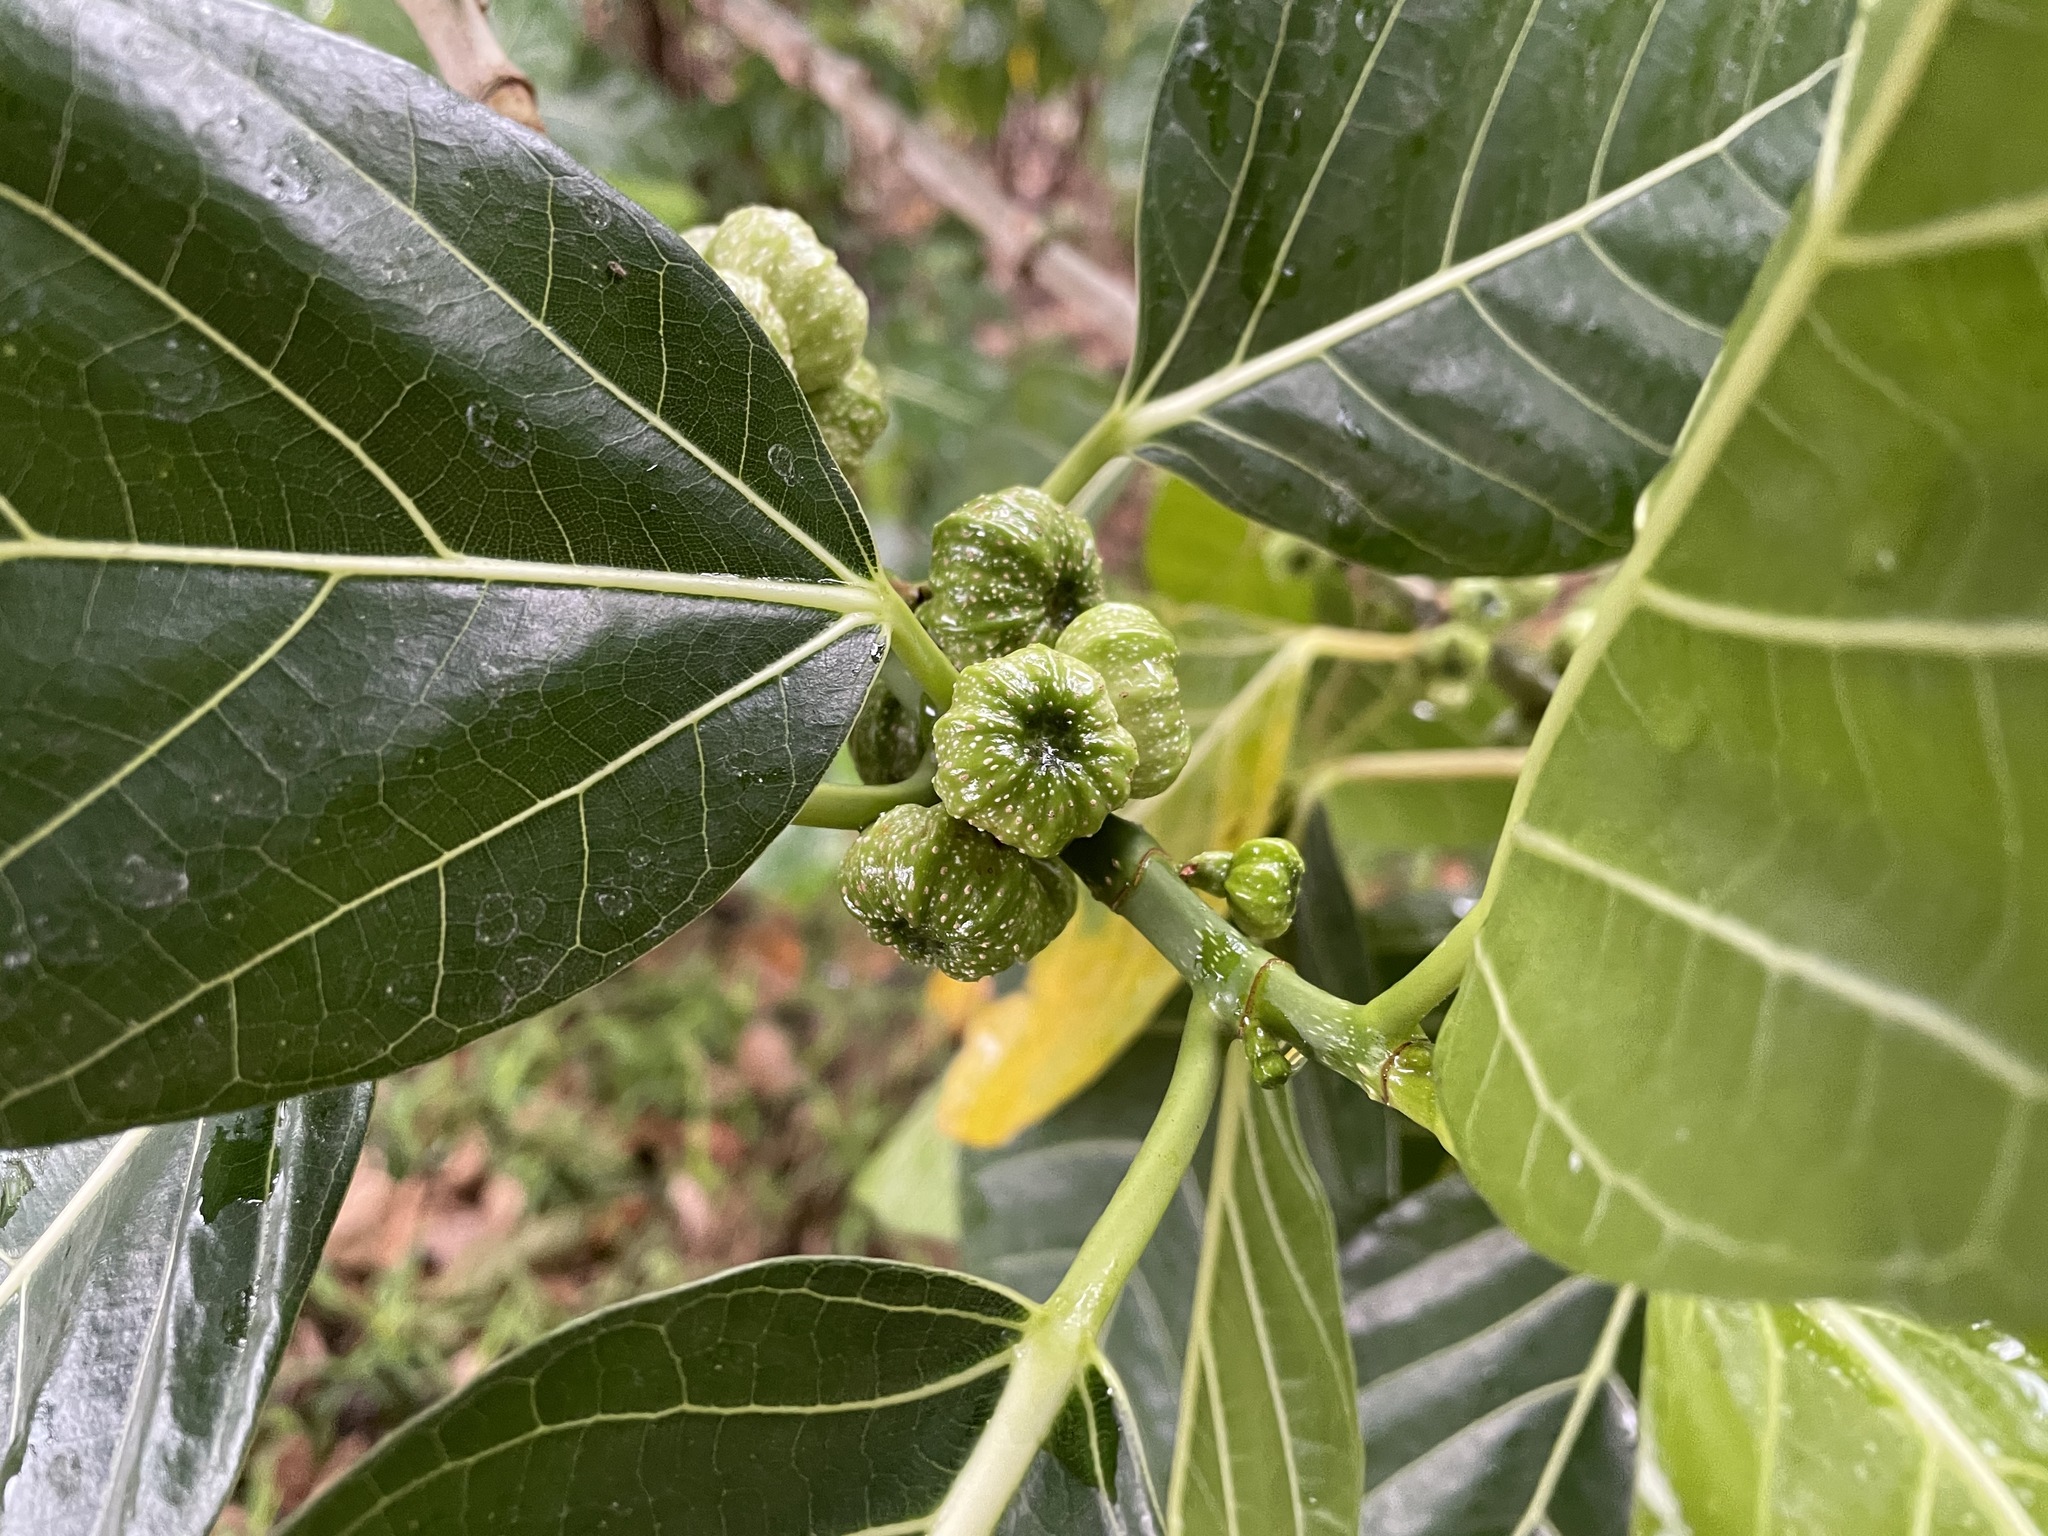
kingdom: Plantae
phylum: Tracheophyta
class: Magnoliopsida
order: Rosales
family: Moraceae
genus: Ficus
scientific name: Ficus septica
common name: Septic fig
